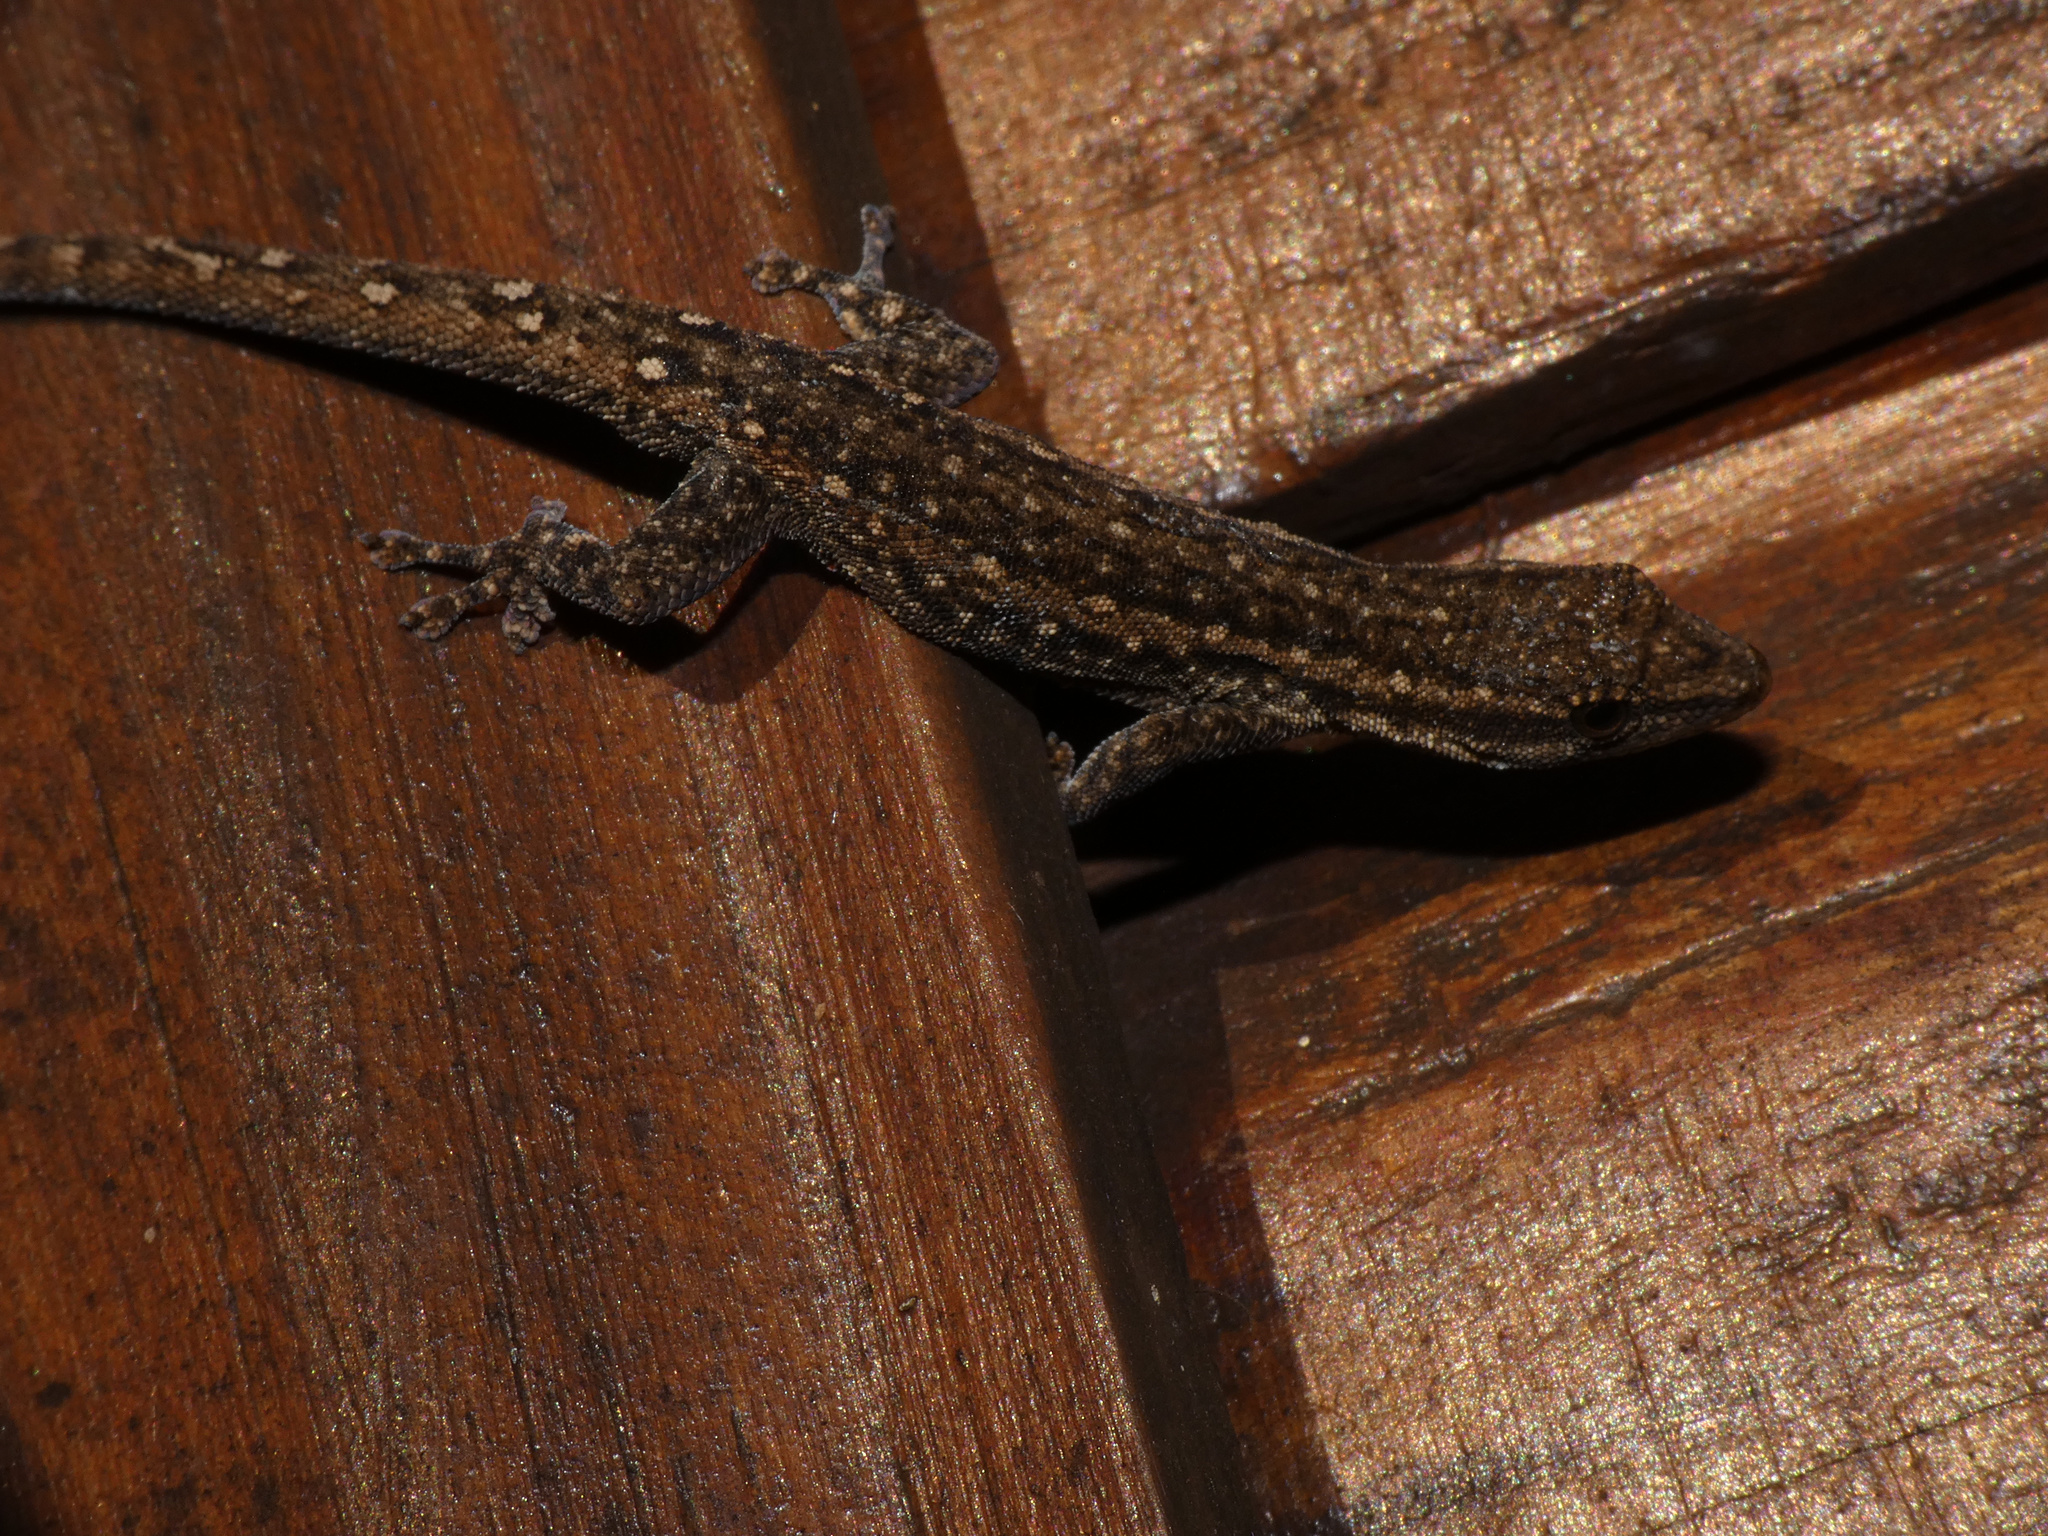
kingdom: Animalia
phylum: Chordata
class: Squamata
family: Gekkonidae
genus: Lygodactylus
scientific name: Lygodactylus capensis
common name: Cape dwarf gecko
